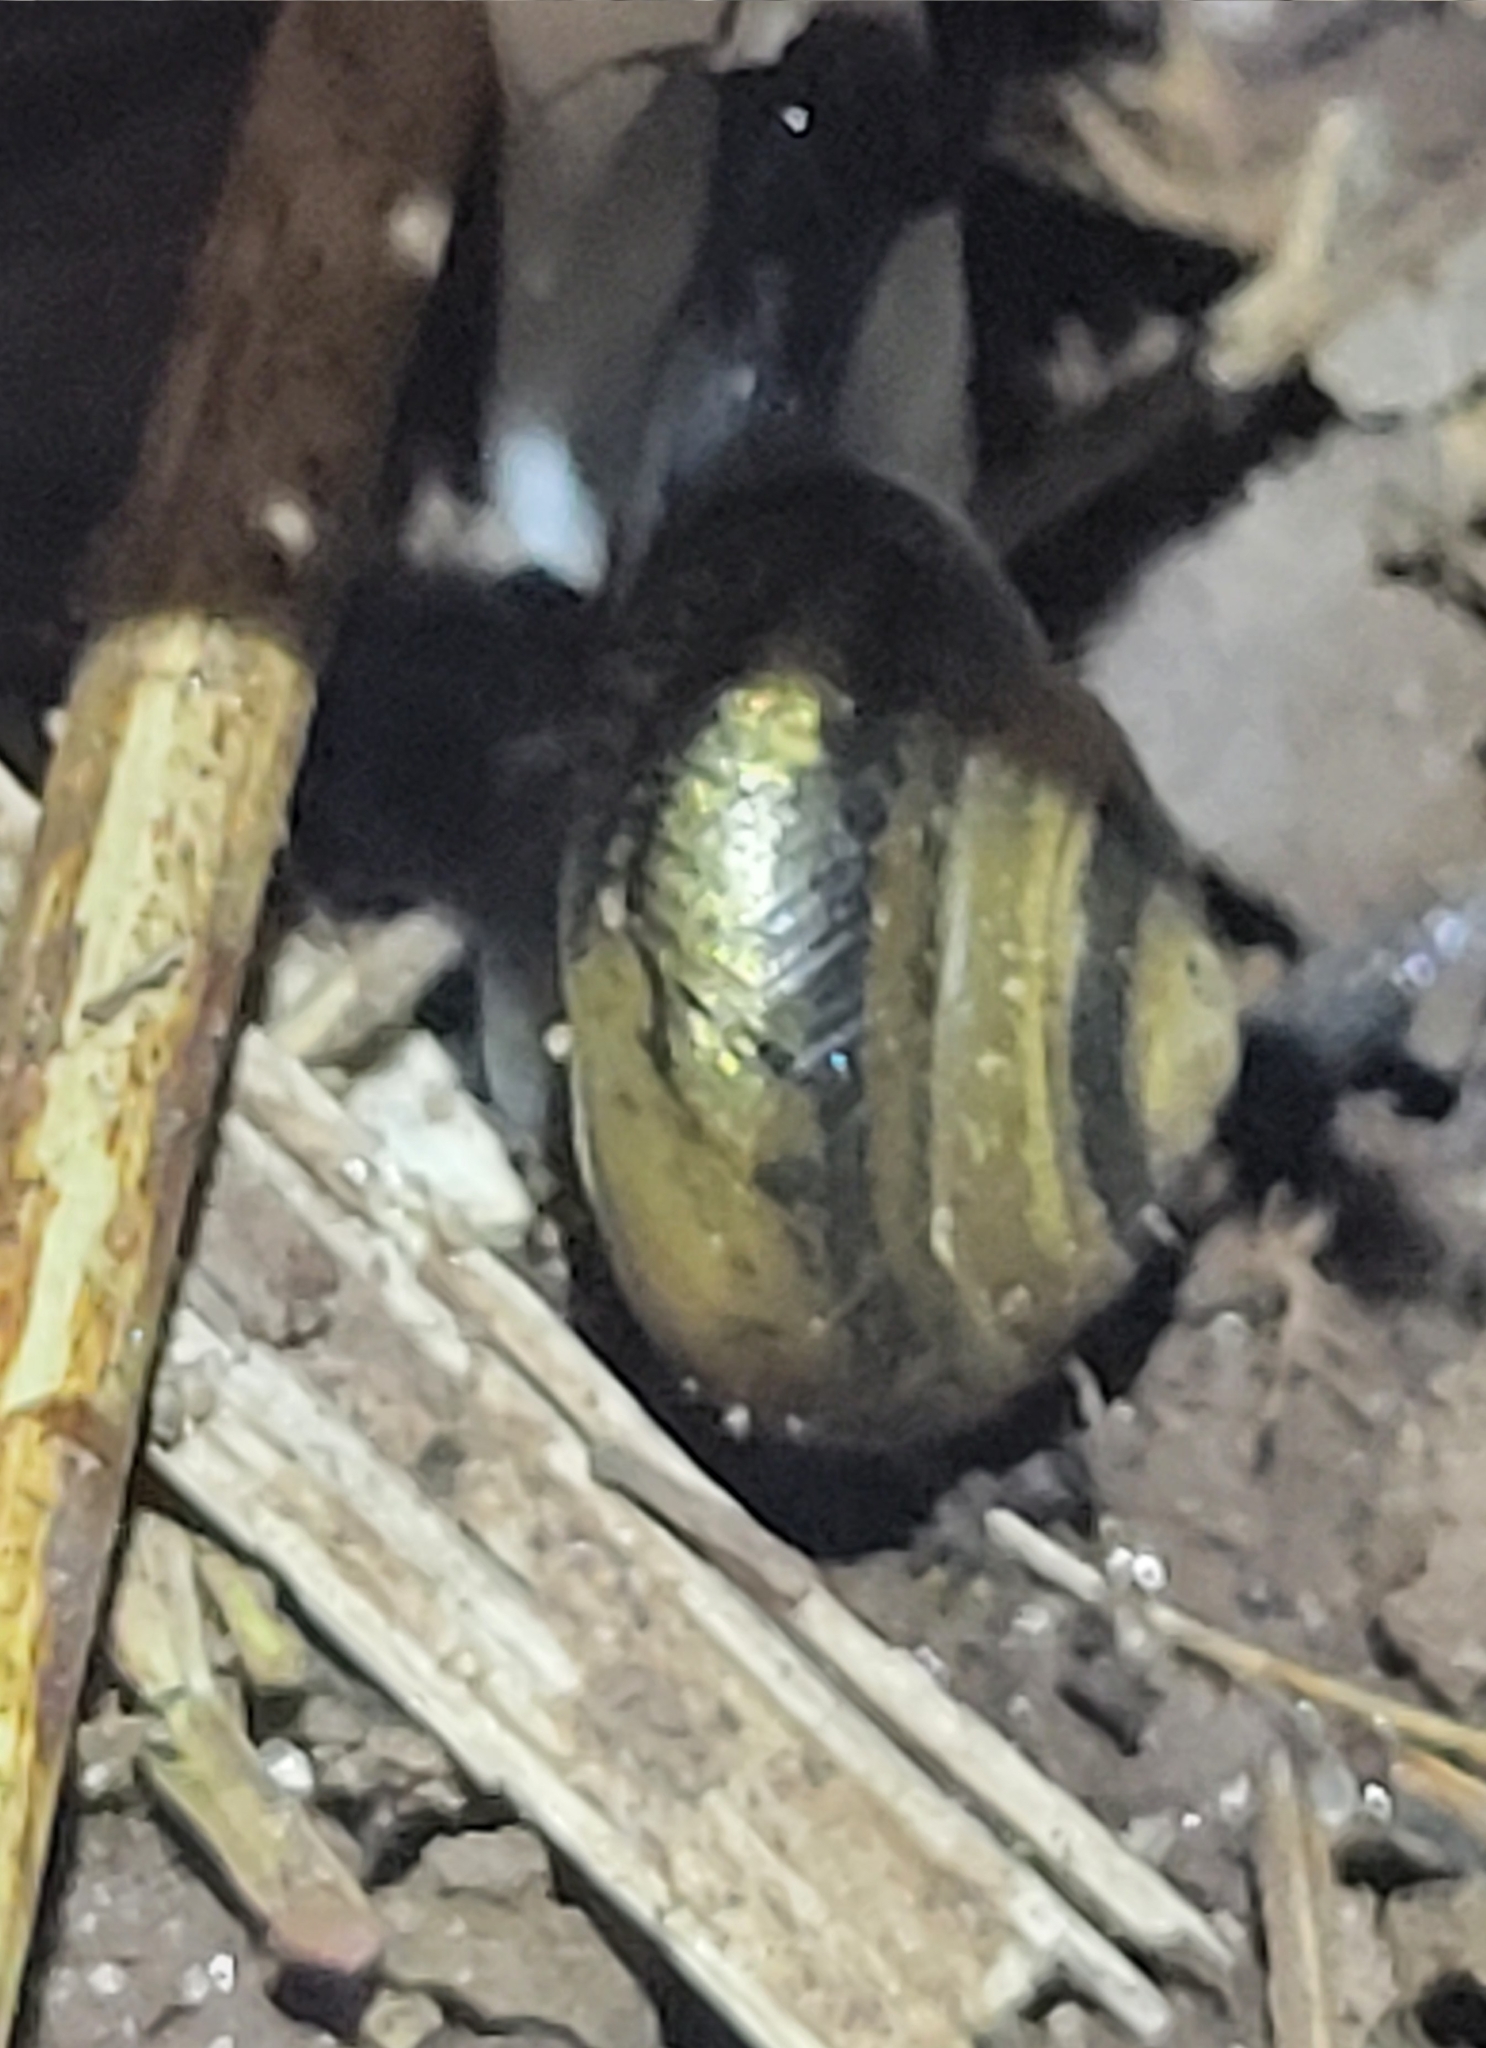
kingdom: Animalia
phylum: Mollusca
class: Gastropoda
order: Stylommatophora
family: Gastrodontidae
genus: Ventridens
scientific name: Ventridens ligera
